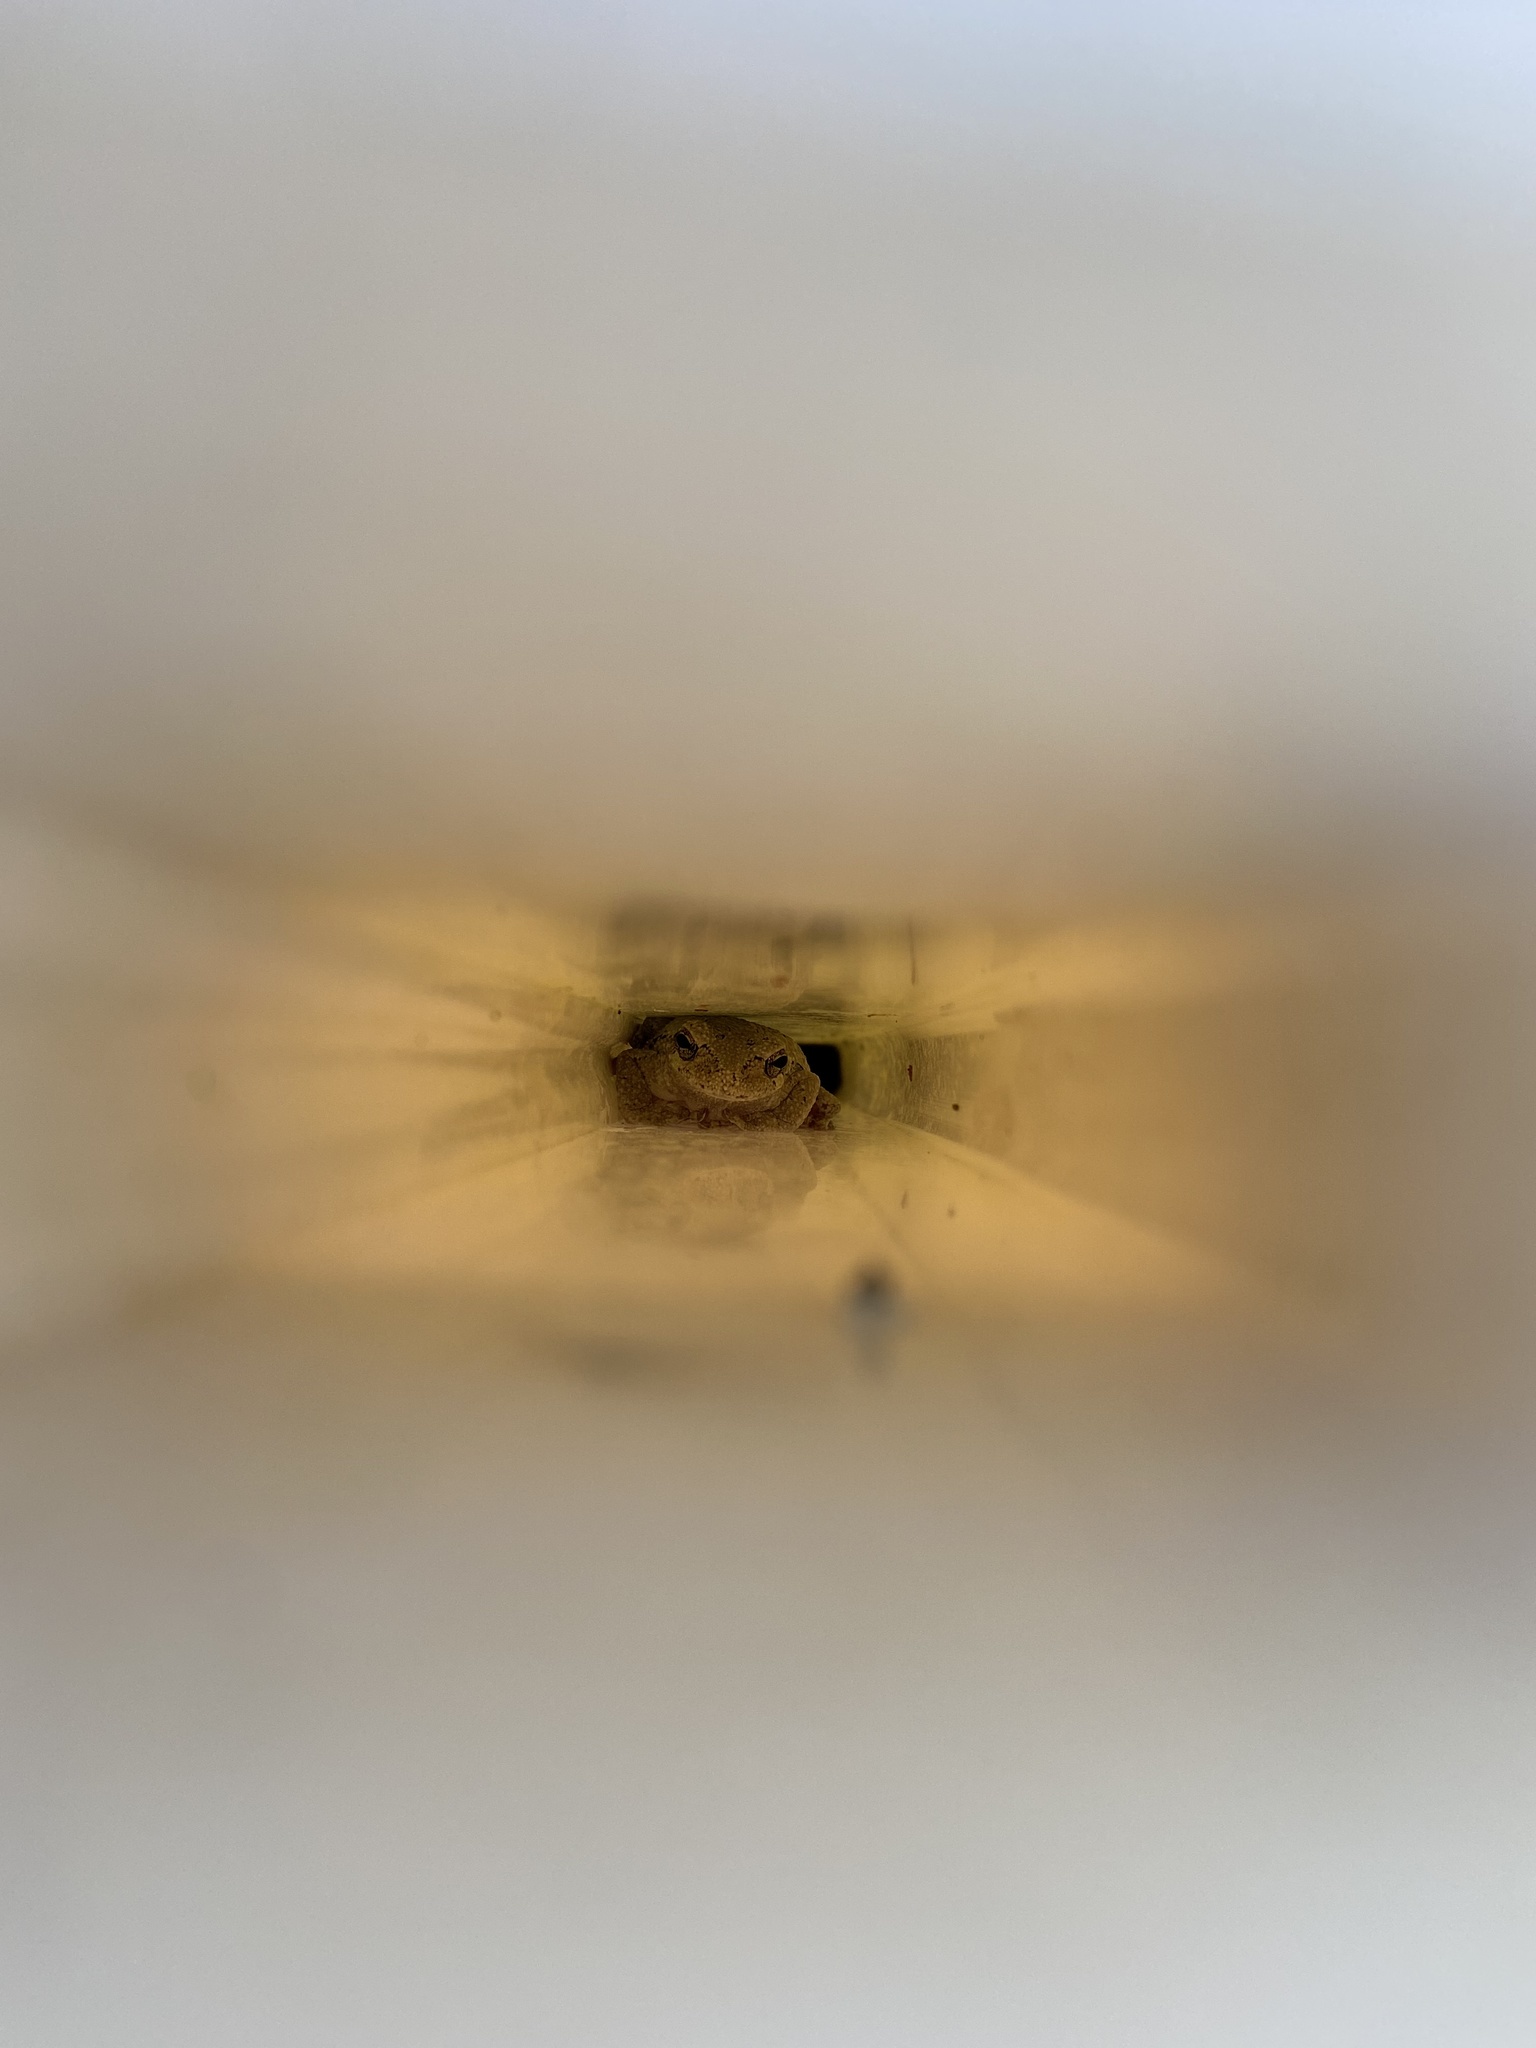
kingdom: Animalia
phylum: Chordata
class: Amphibia
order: Anura
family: Hylidae
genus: Dryophytes
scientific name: Dryophytes chrysoscelis
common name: Cope's gray treefrog
